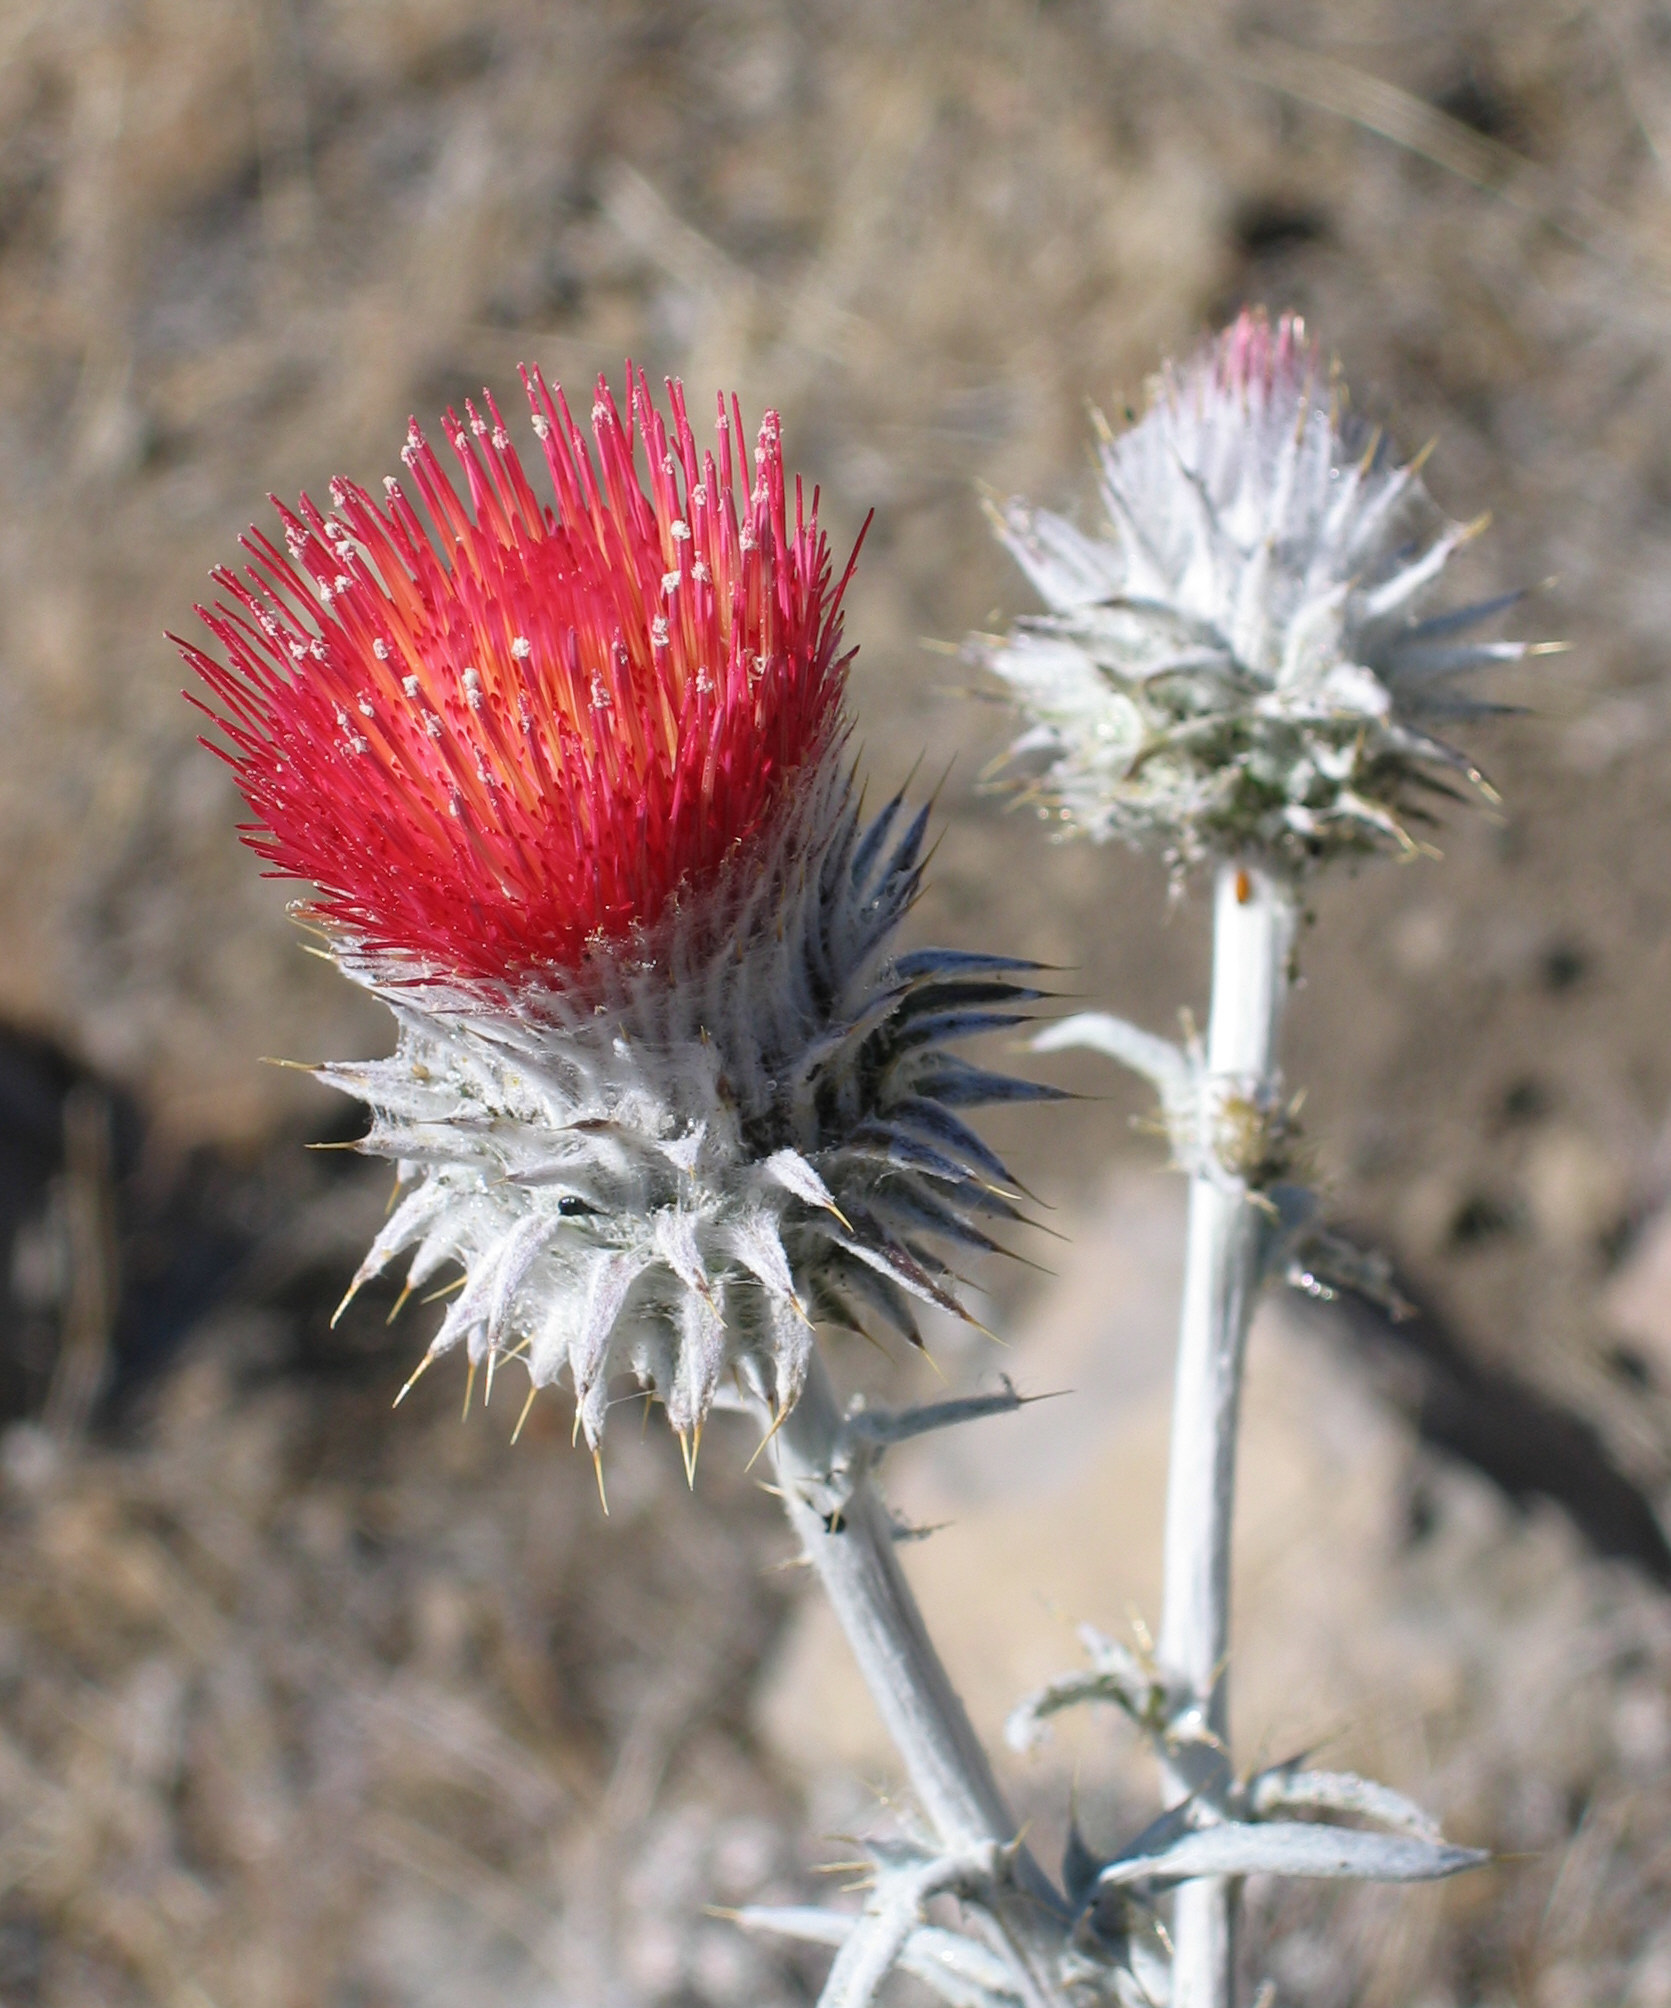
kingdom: Plantae
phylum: Tracheophyta
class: Magnoliopsida
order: Asterales
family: Asteraceae
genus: Cirsium
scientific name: Cirsium occidentale
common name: Western thistle
